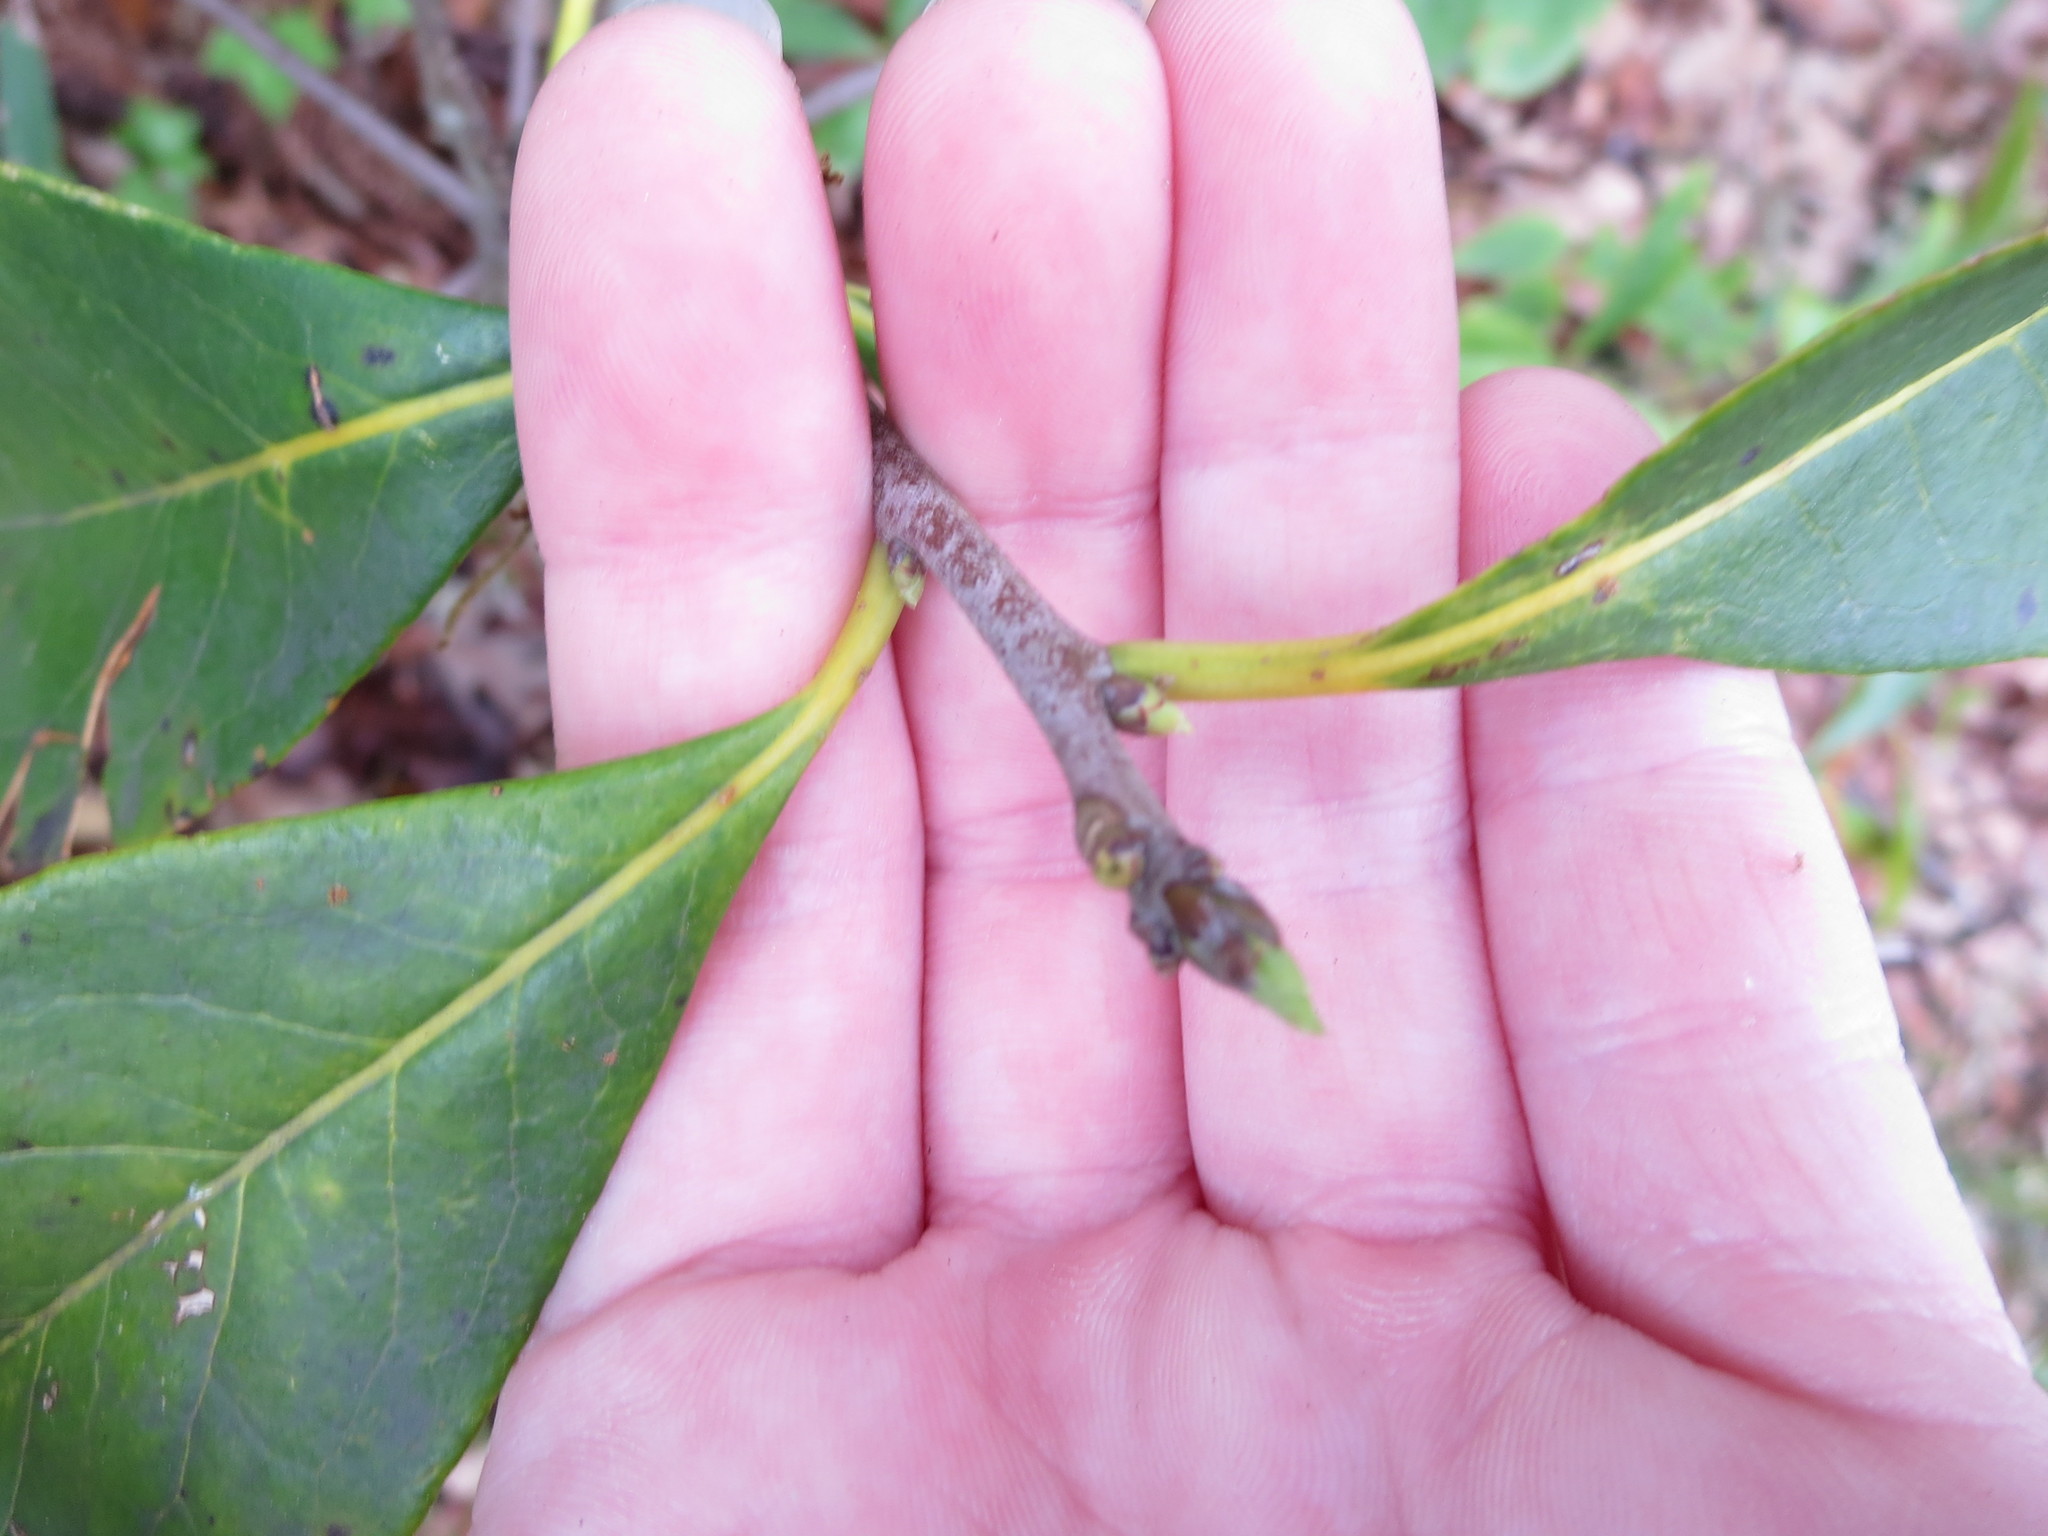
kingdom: Plantae
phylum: Tracheophyta
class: Magnoliopsida
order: Ericales
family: Symplocaceae
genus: Symplocos
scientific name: Symplocos tinctoria
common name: Horse-sugar
